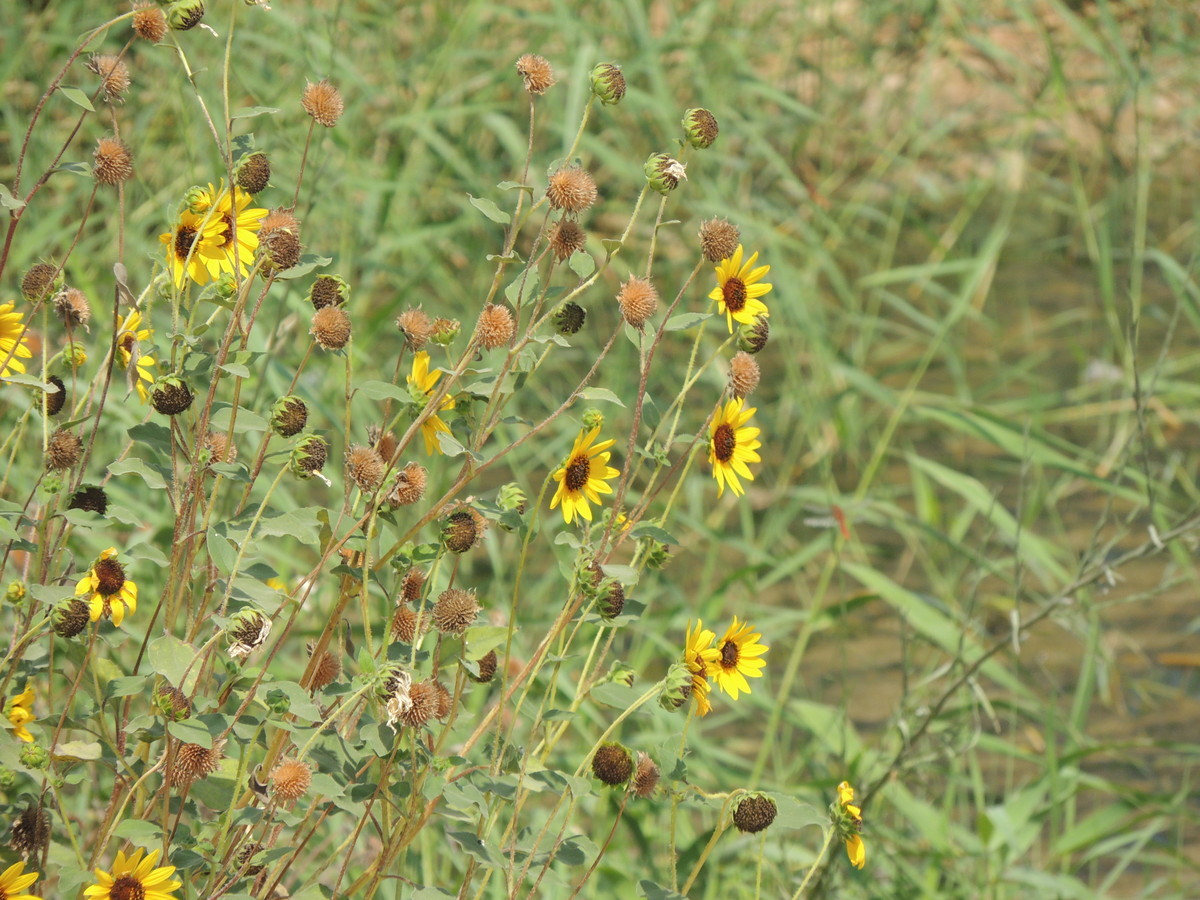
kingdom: Plantae
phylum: Tracheophyta
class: Magnoliopsida
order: Asterales
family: Asteraceae
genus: Helianthus
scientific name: Helianthus annuus
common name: Sunflower
